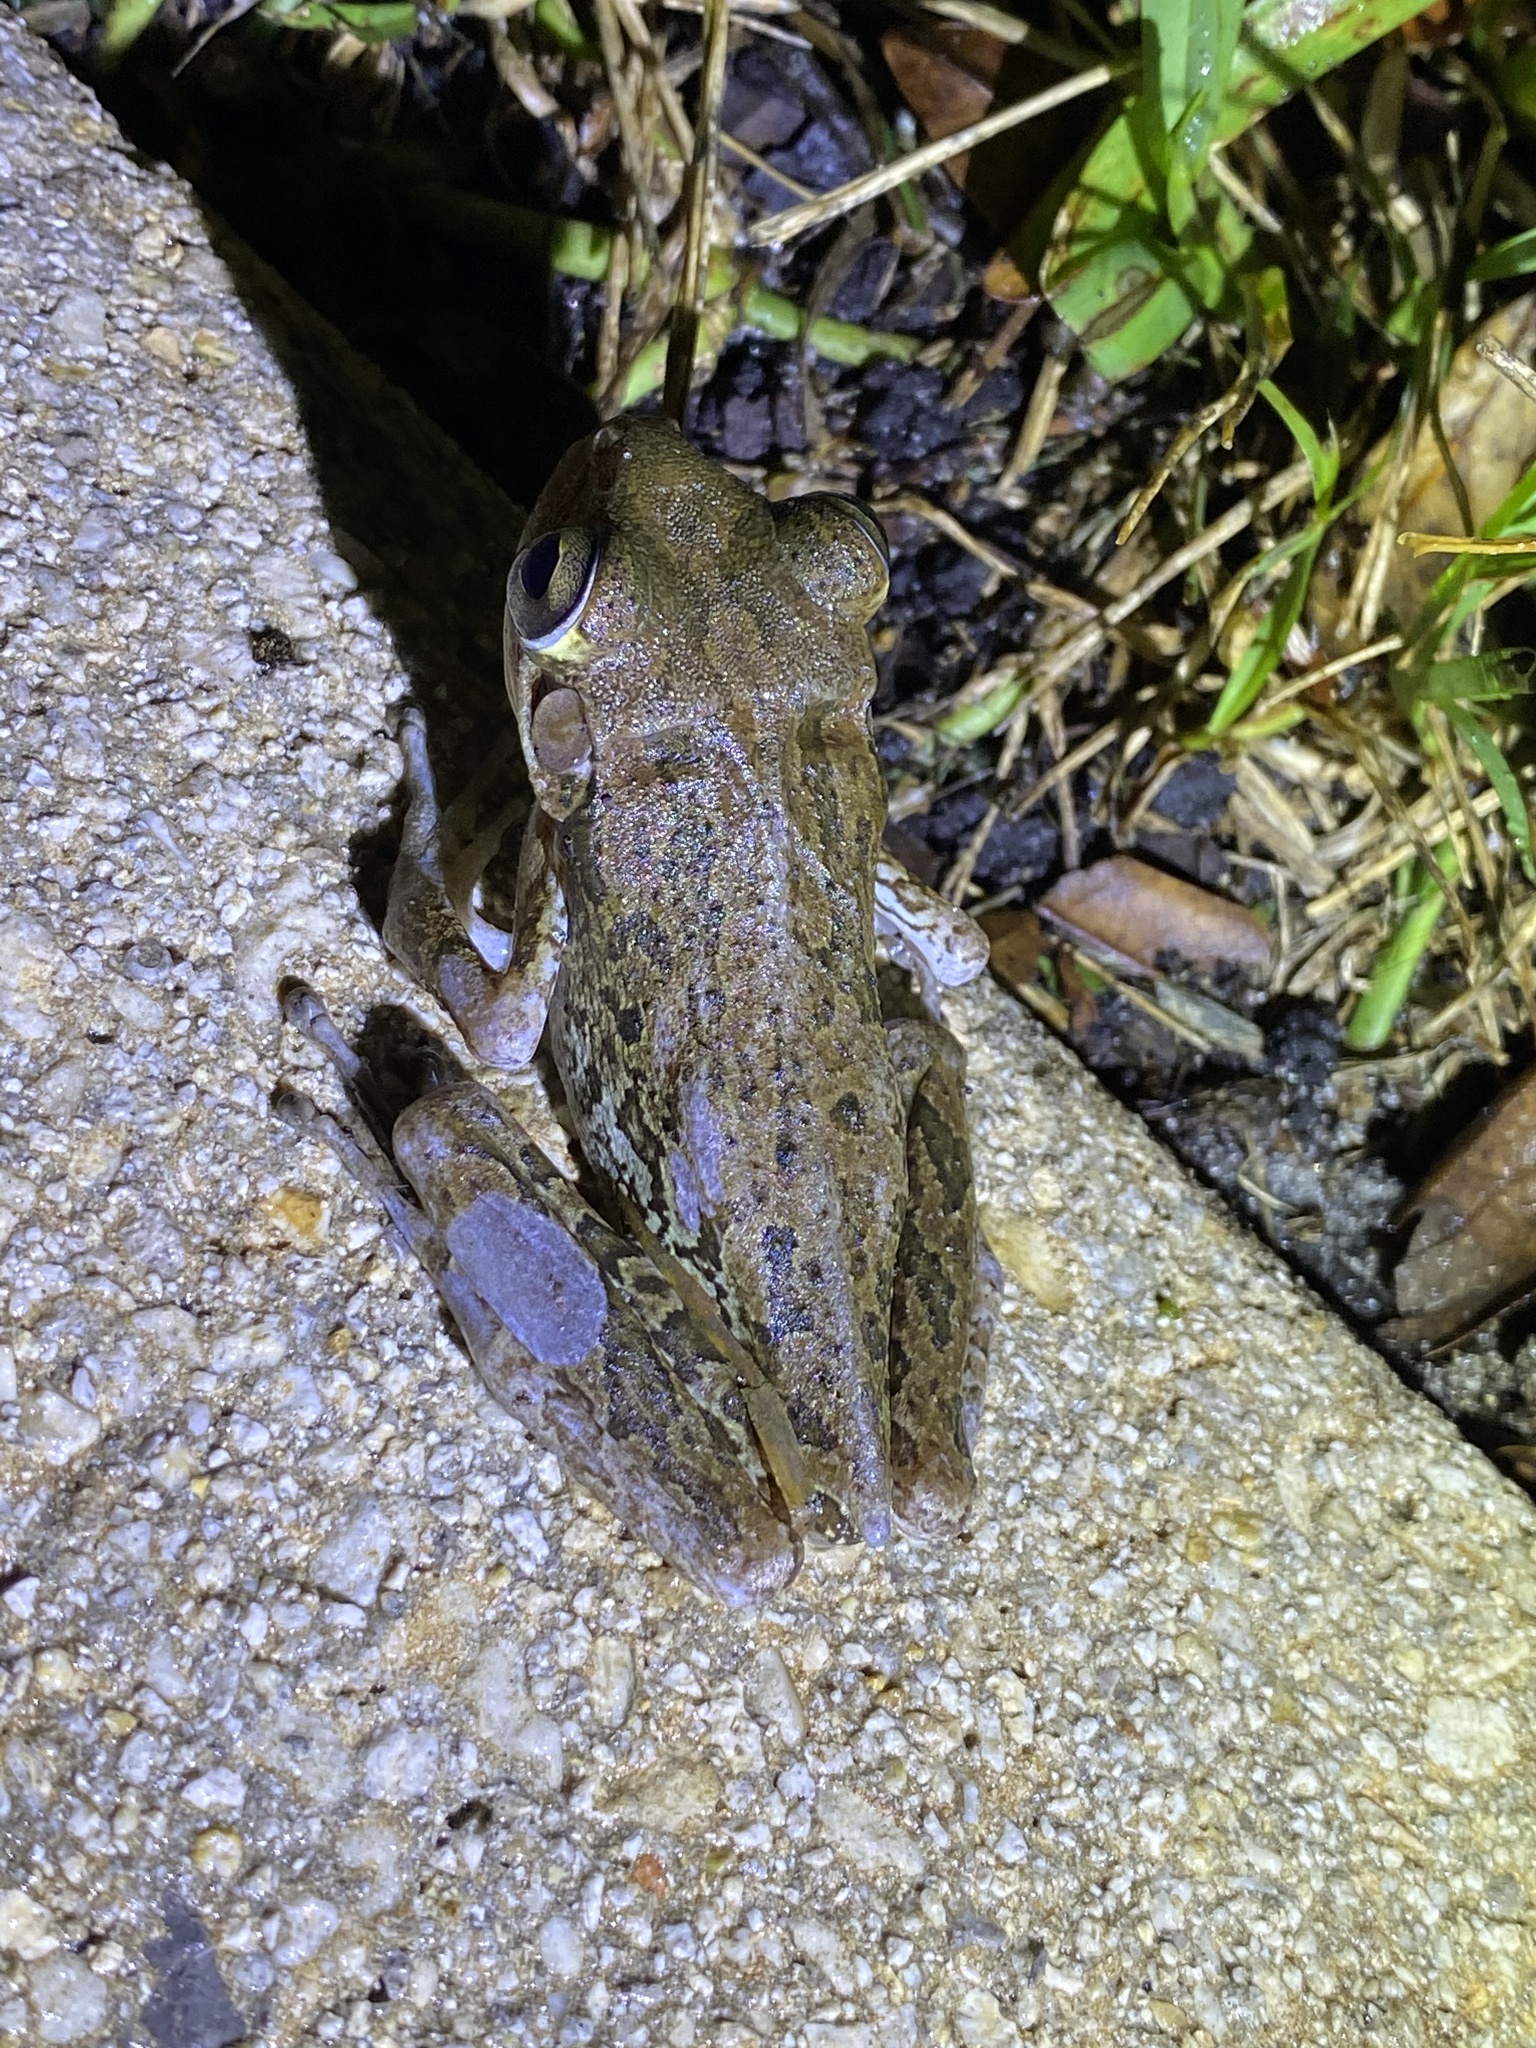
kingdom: Animalia
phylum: Chordata
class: Amphibia
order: Anura
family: Hylidae
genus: Osteopilus
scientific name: Osteopilus septentrionalis
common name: Cuban treefrog
